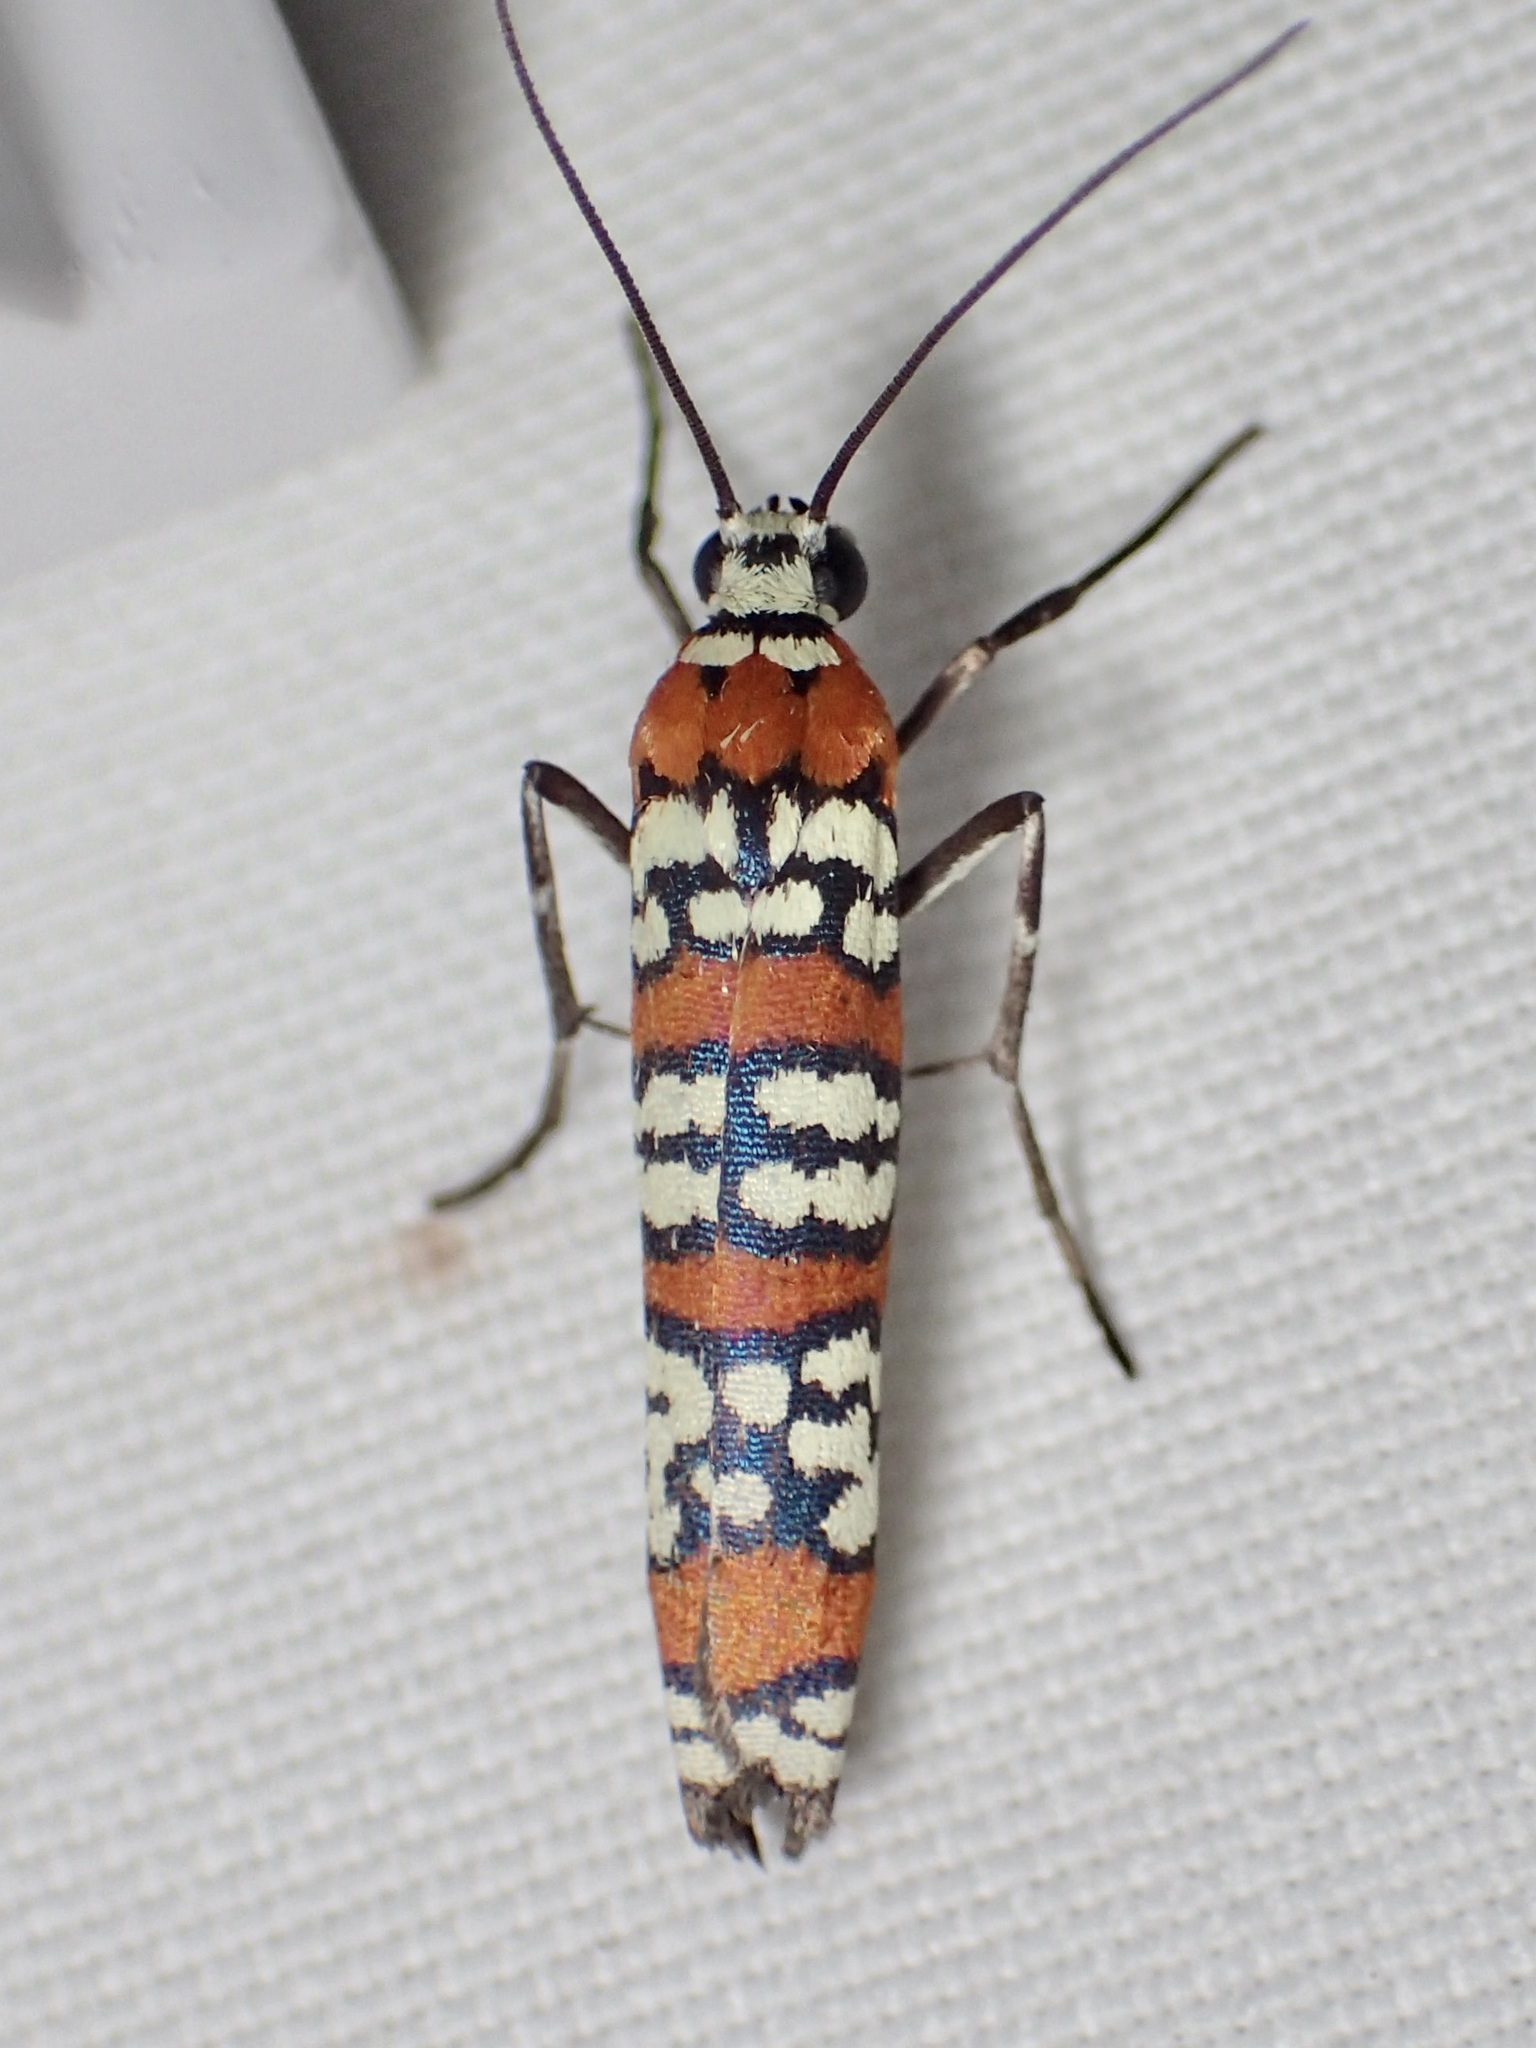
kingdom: Animalia
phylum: Arthropoda
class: Insecta
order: Lepidoptera
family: Attevidae
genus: Atteva
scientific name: Atteva punctella
